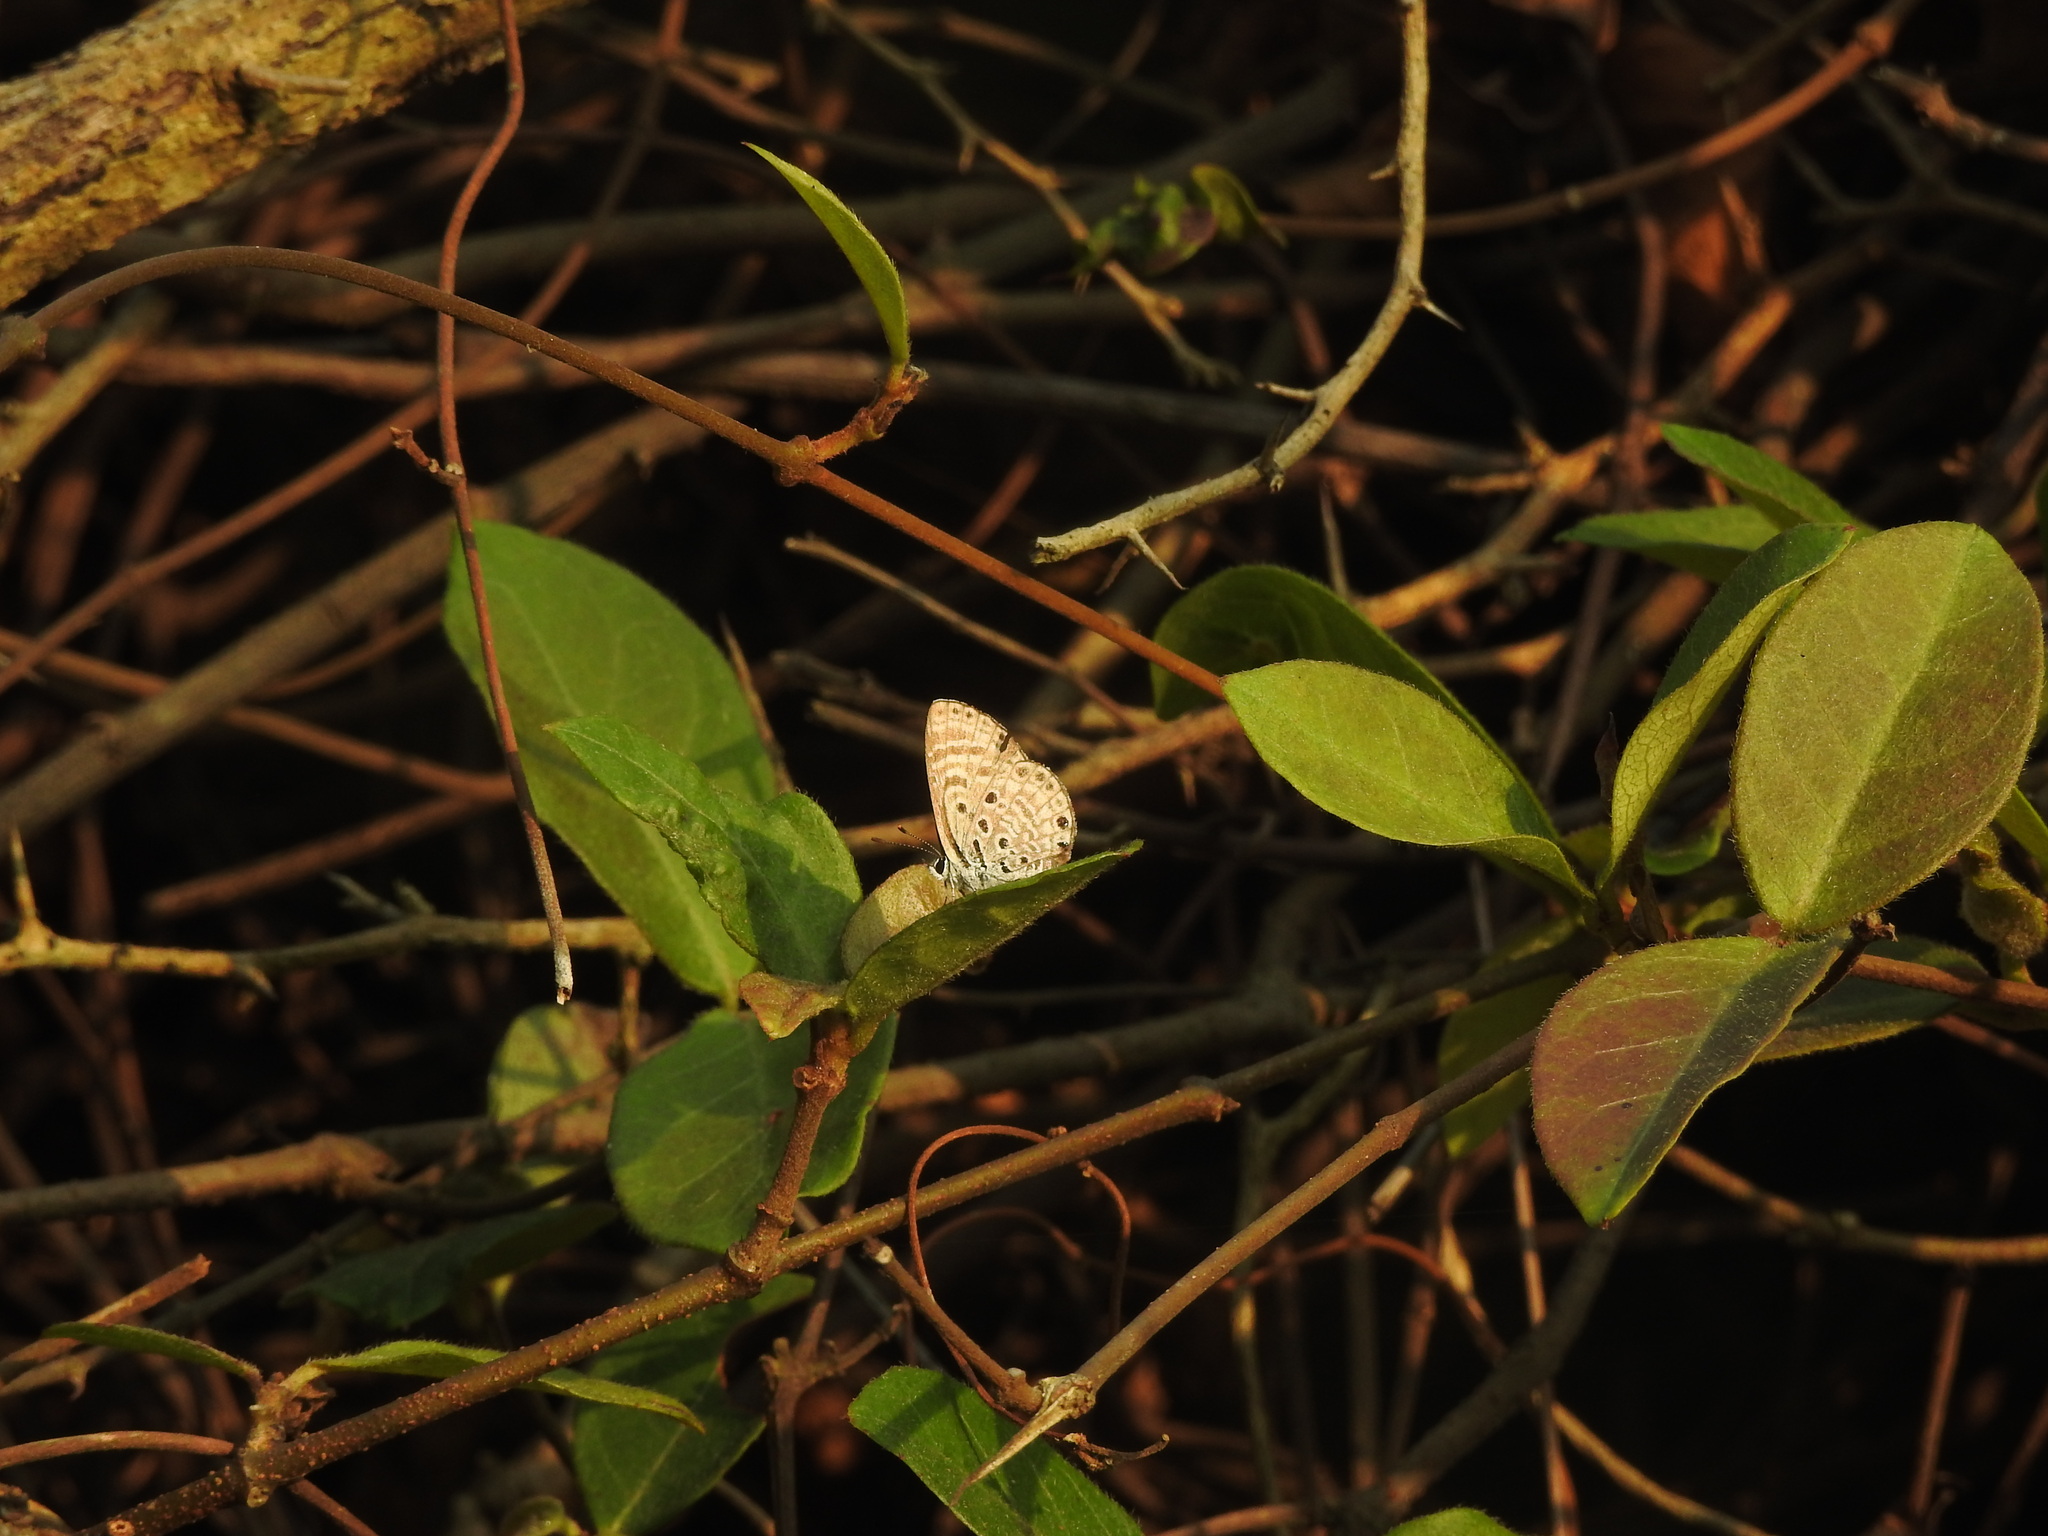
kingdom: Animalia
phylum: Arthropoda
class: Insecta
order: Lepidoptera
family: Lycaenidae
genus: Azanus
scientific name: Azanus jesous
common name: African babul blue
